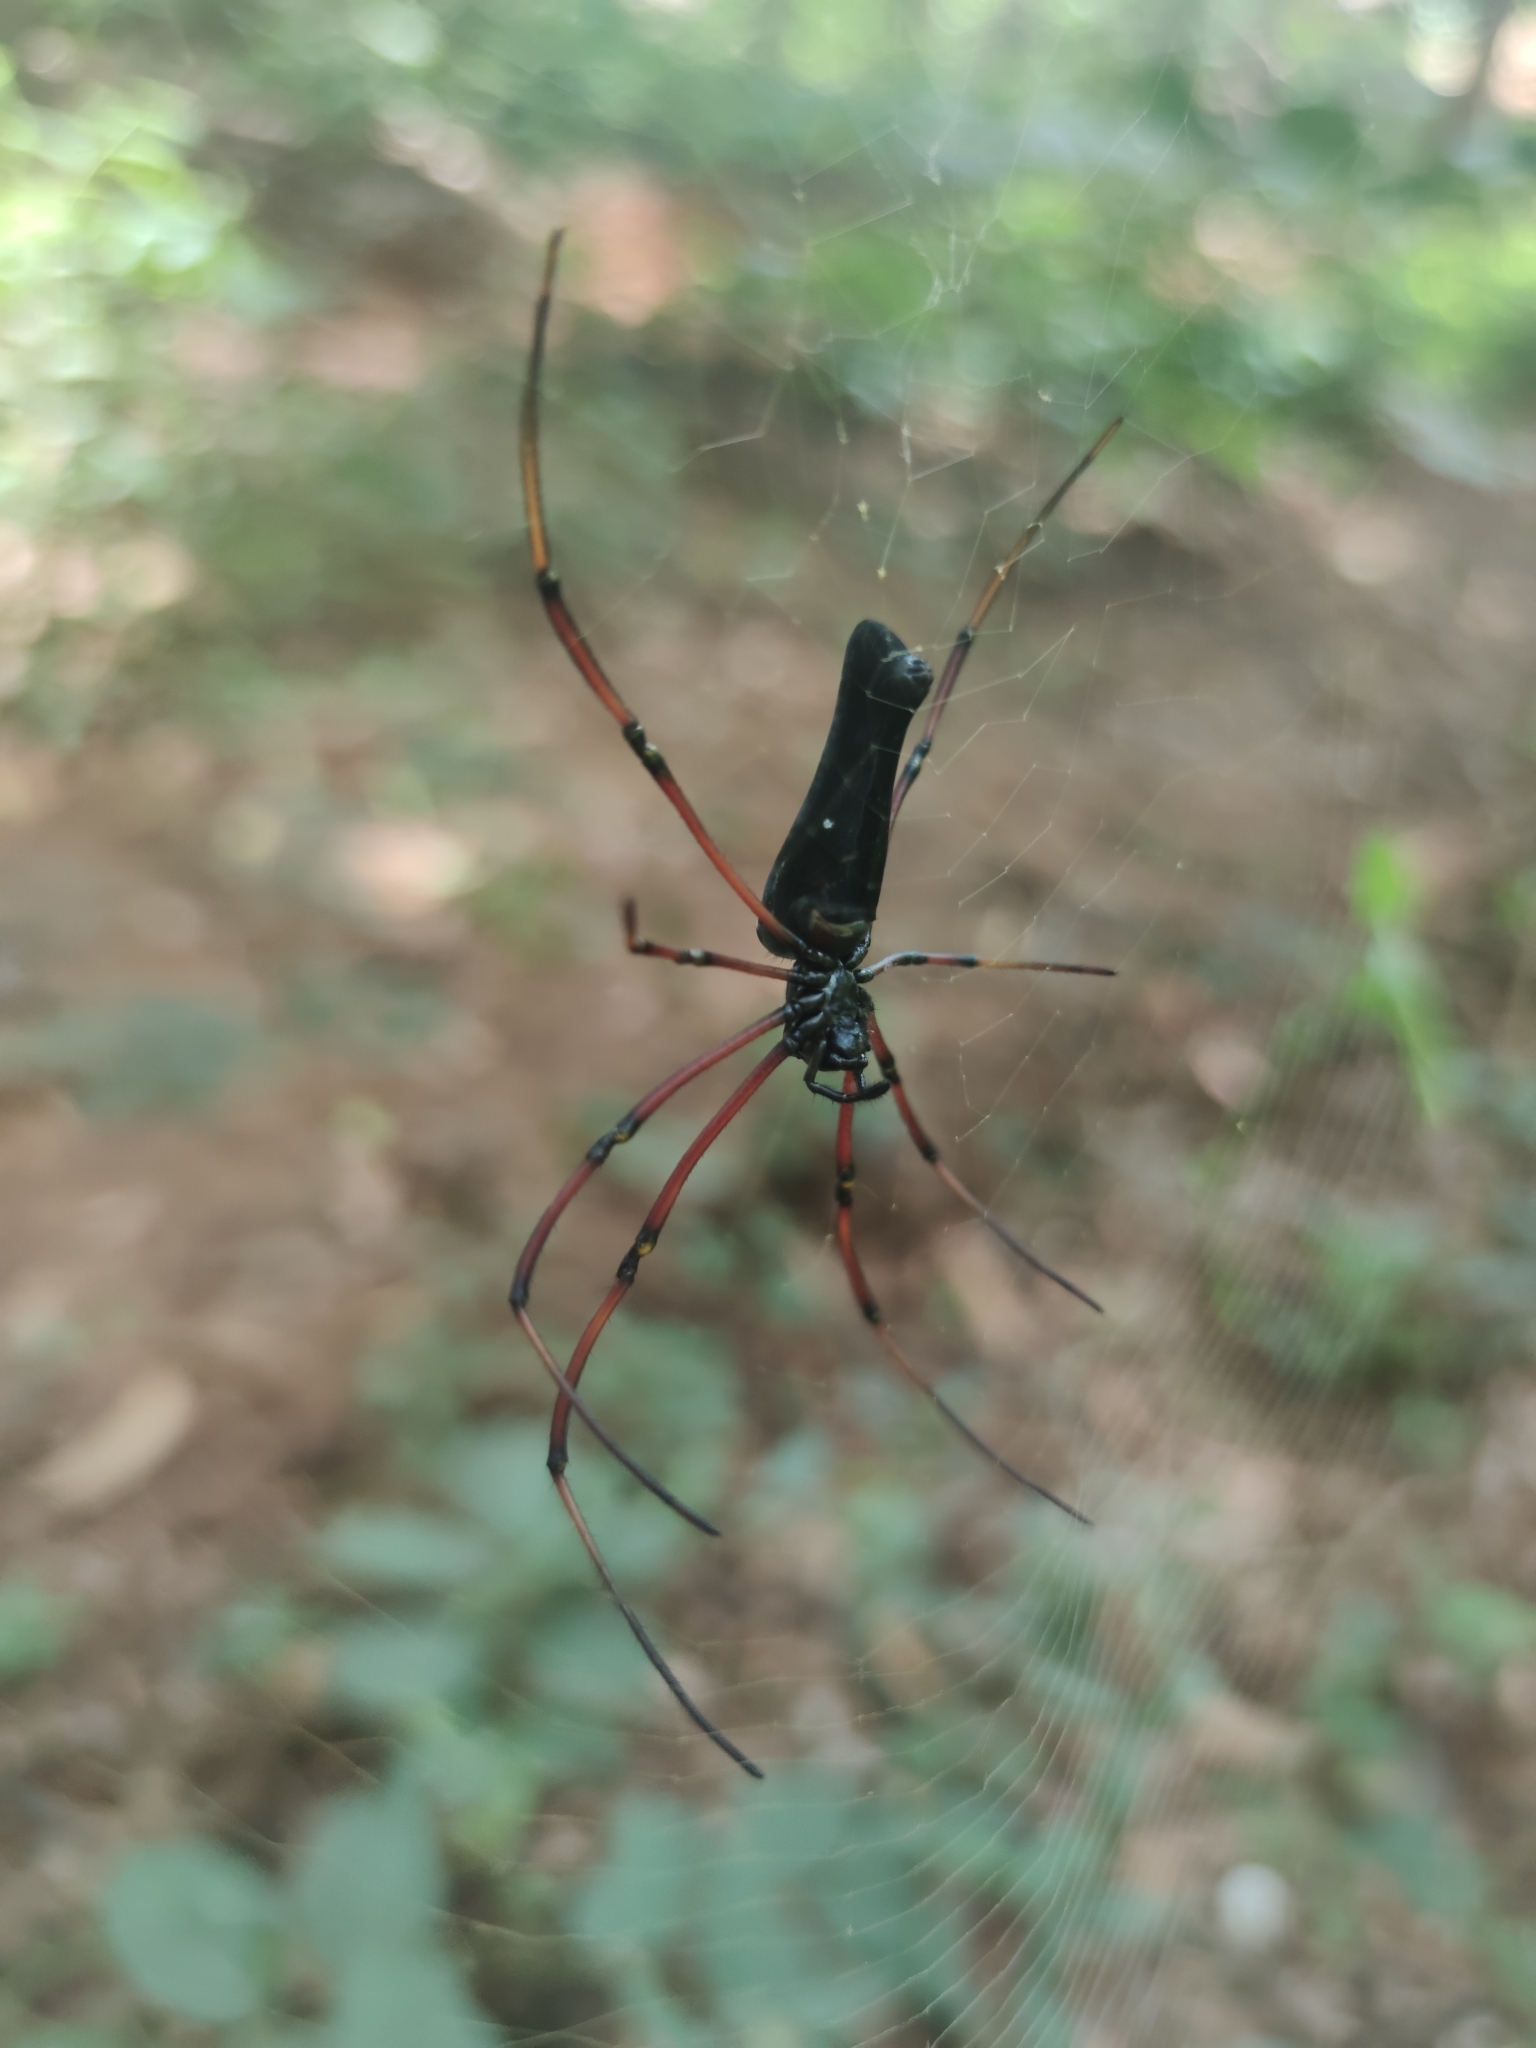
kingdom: Animalia
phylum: Arthropoda
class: Arachnida
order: Araneae
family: Araneidae
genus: Nephila
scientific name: Nephila kuhli
